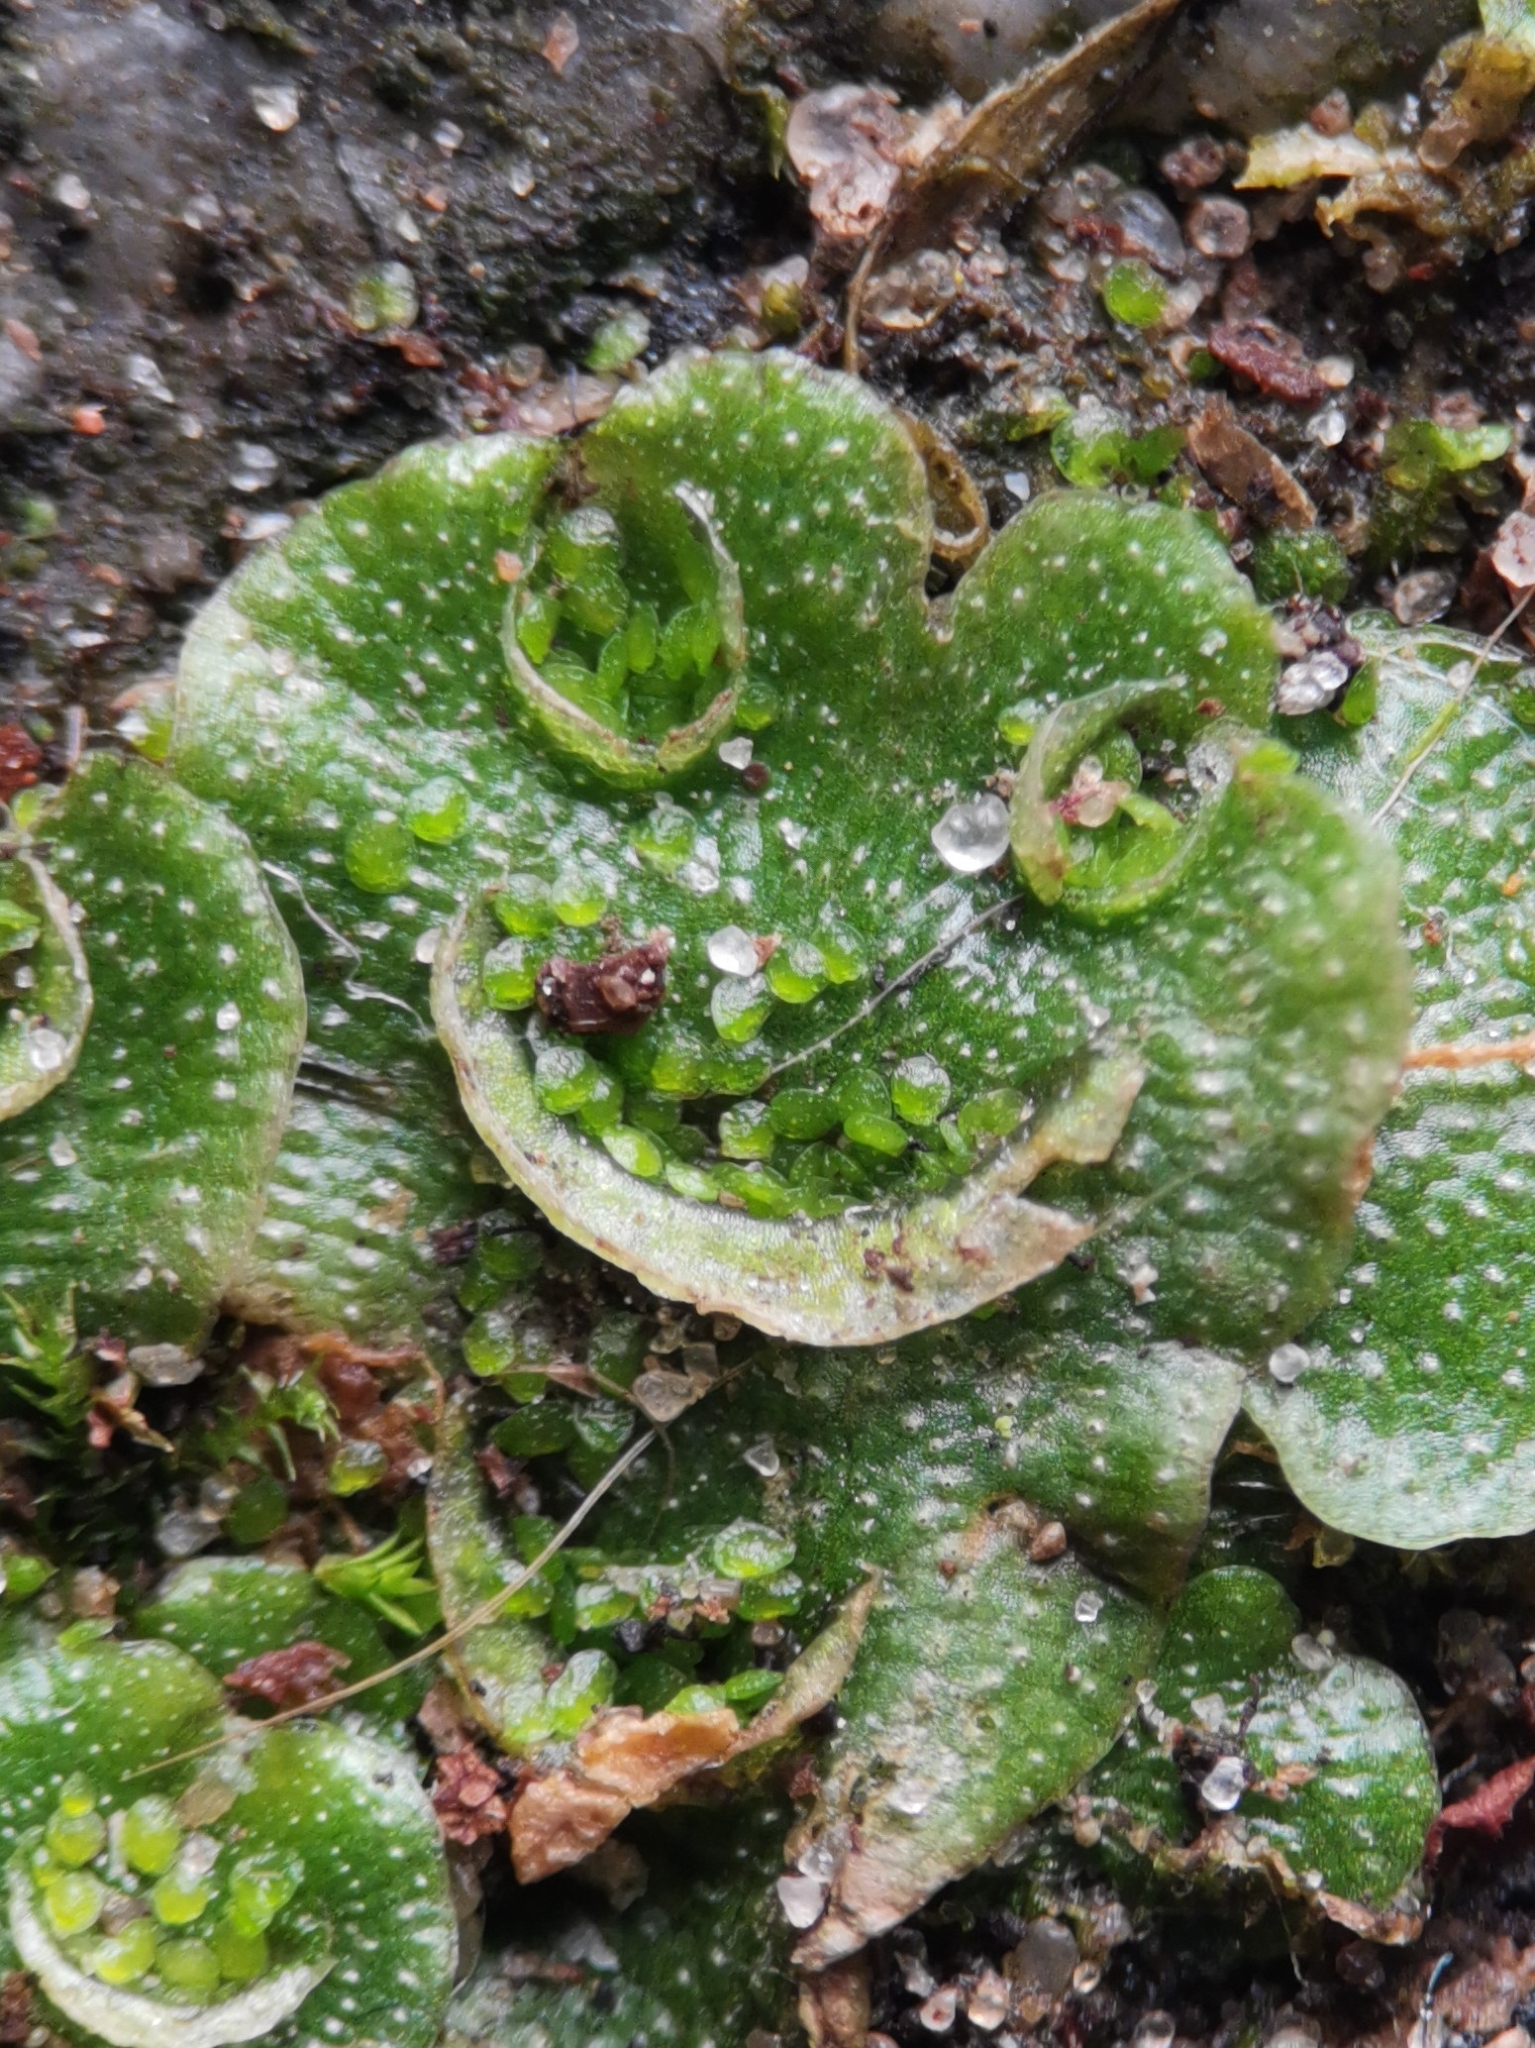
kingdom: Plantae
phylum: Marchantiophyta
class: Marchantiopsida
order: Lunulariales
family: Lunulariaceae
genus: Lunularia
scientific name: Lunularia cruciata
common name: Crescent-cup liverwort
